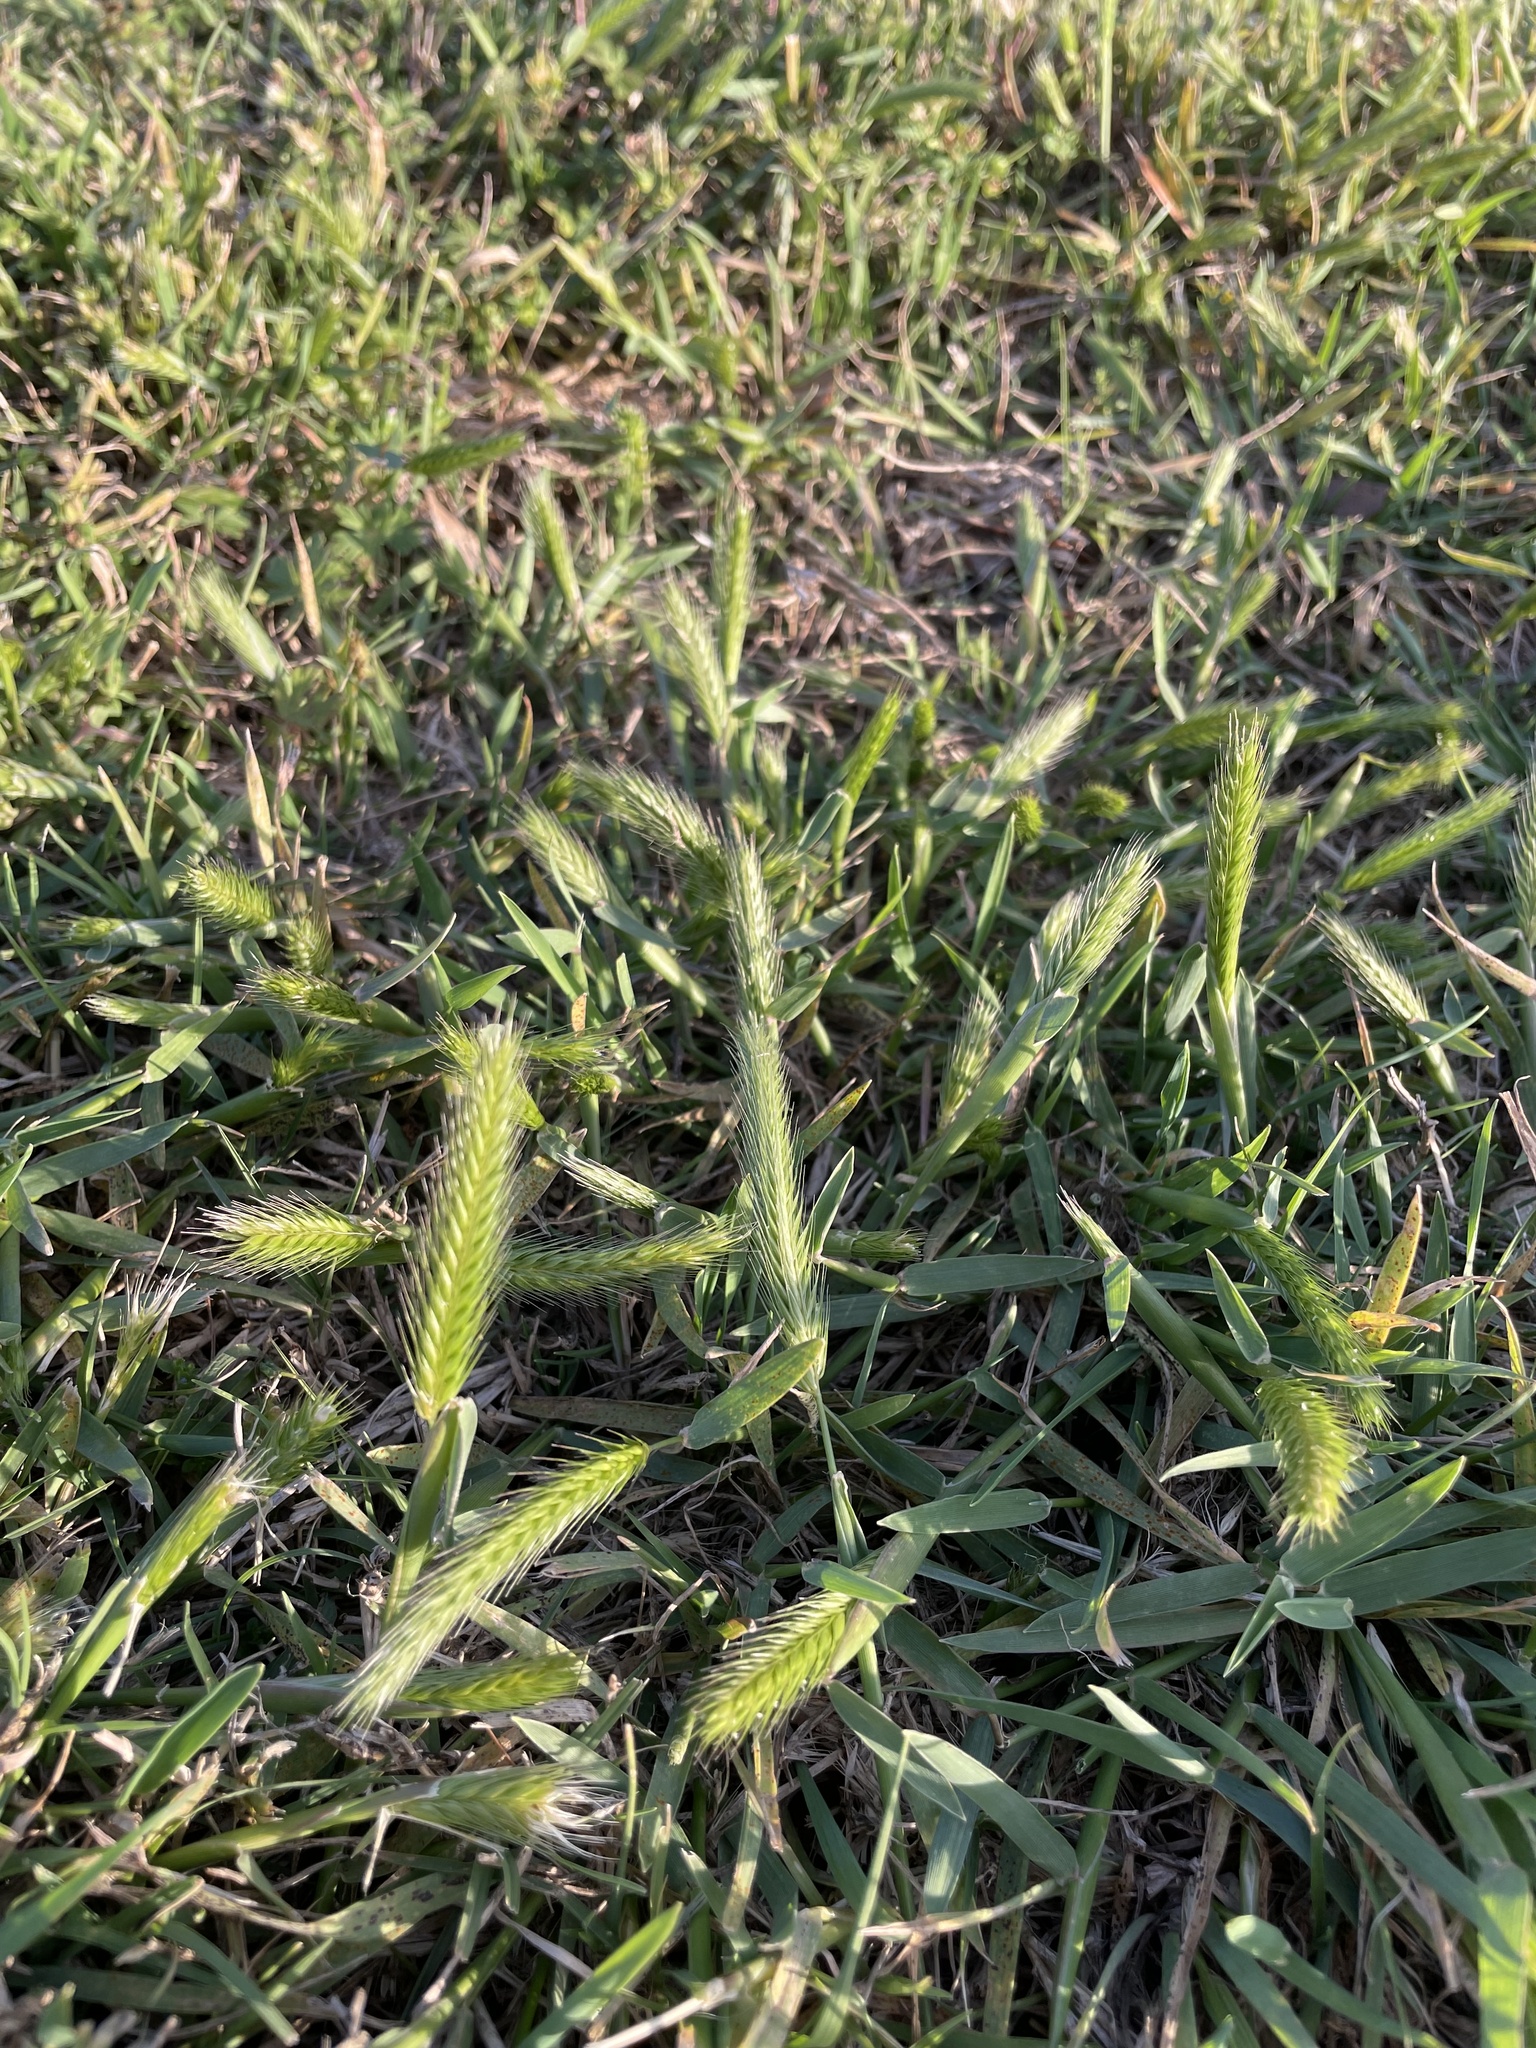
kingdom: Plantae
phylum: Tracheophyta
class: Liliopsida
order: Poales
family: Poaceae
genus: Hordeum
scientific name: Hordeum pusillum
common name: Little barley
